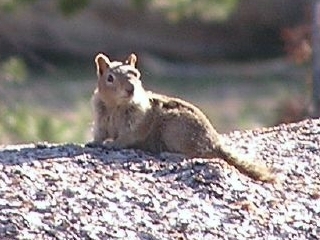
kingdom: Animalia
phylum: Chordata
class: Mammalia
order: Rodentia
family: Sciuridae
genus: Callospermophilus
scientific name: Callospermophilus lateralis
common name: Golden-mantled ground squirrel
